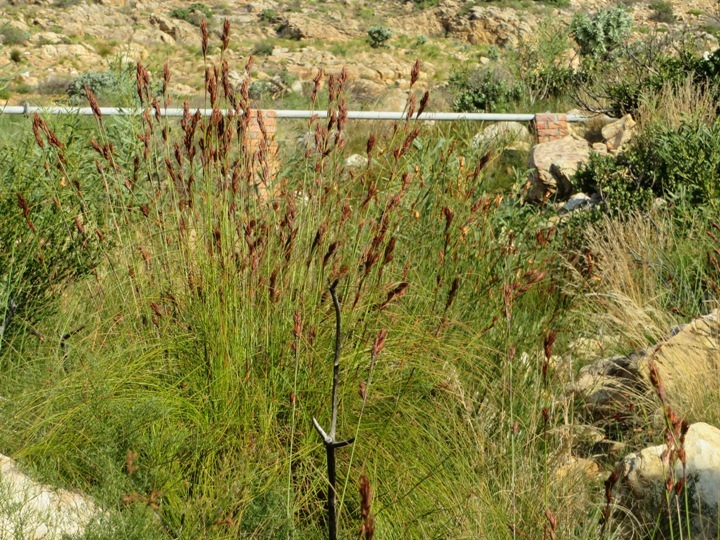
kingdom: Plantae
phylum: Tracheophyta
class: Liliopsida
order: Poales
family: Cyperaceae
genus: Tetraria
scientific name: Tetraria ustulata
